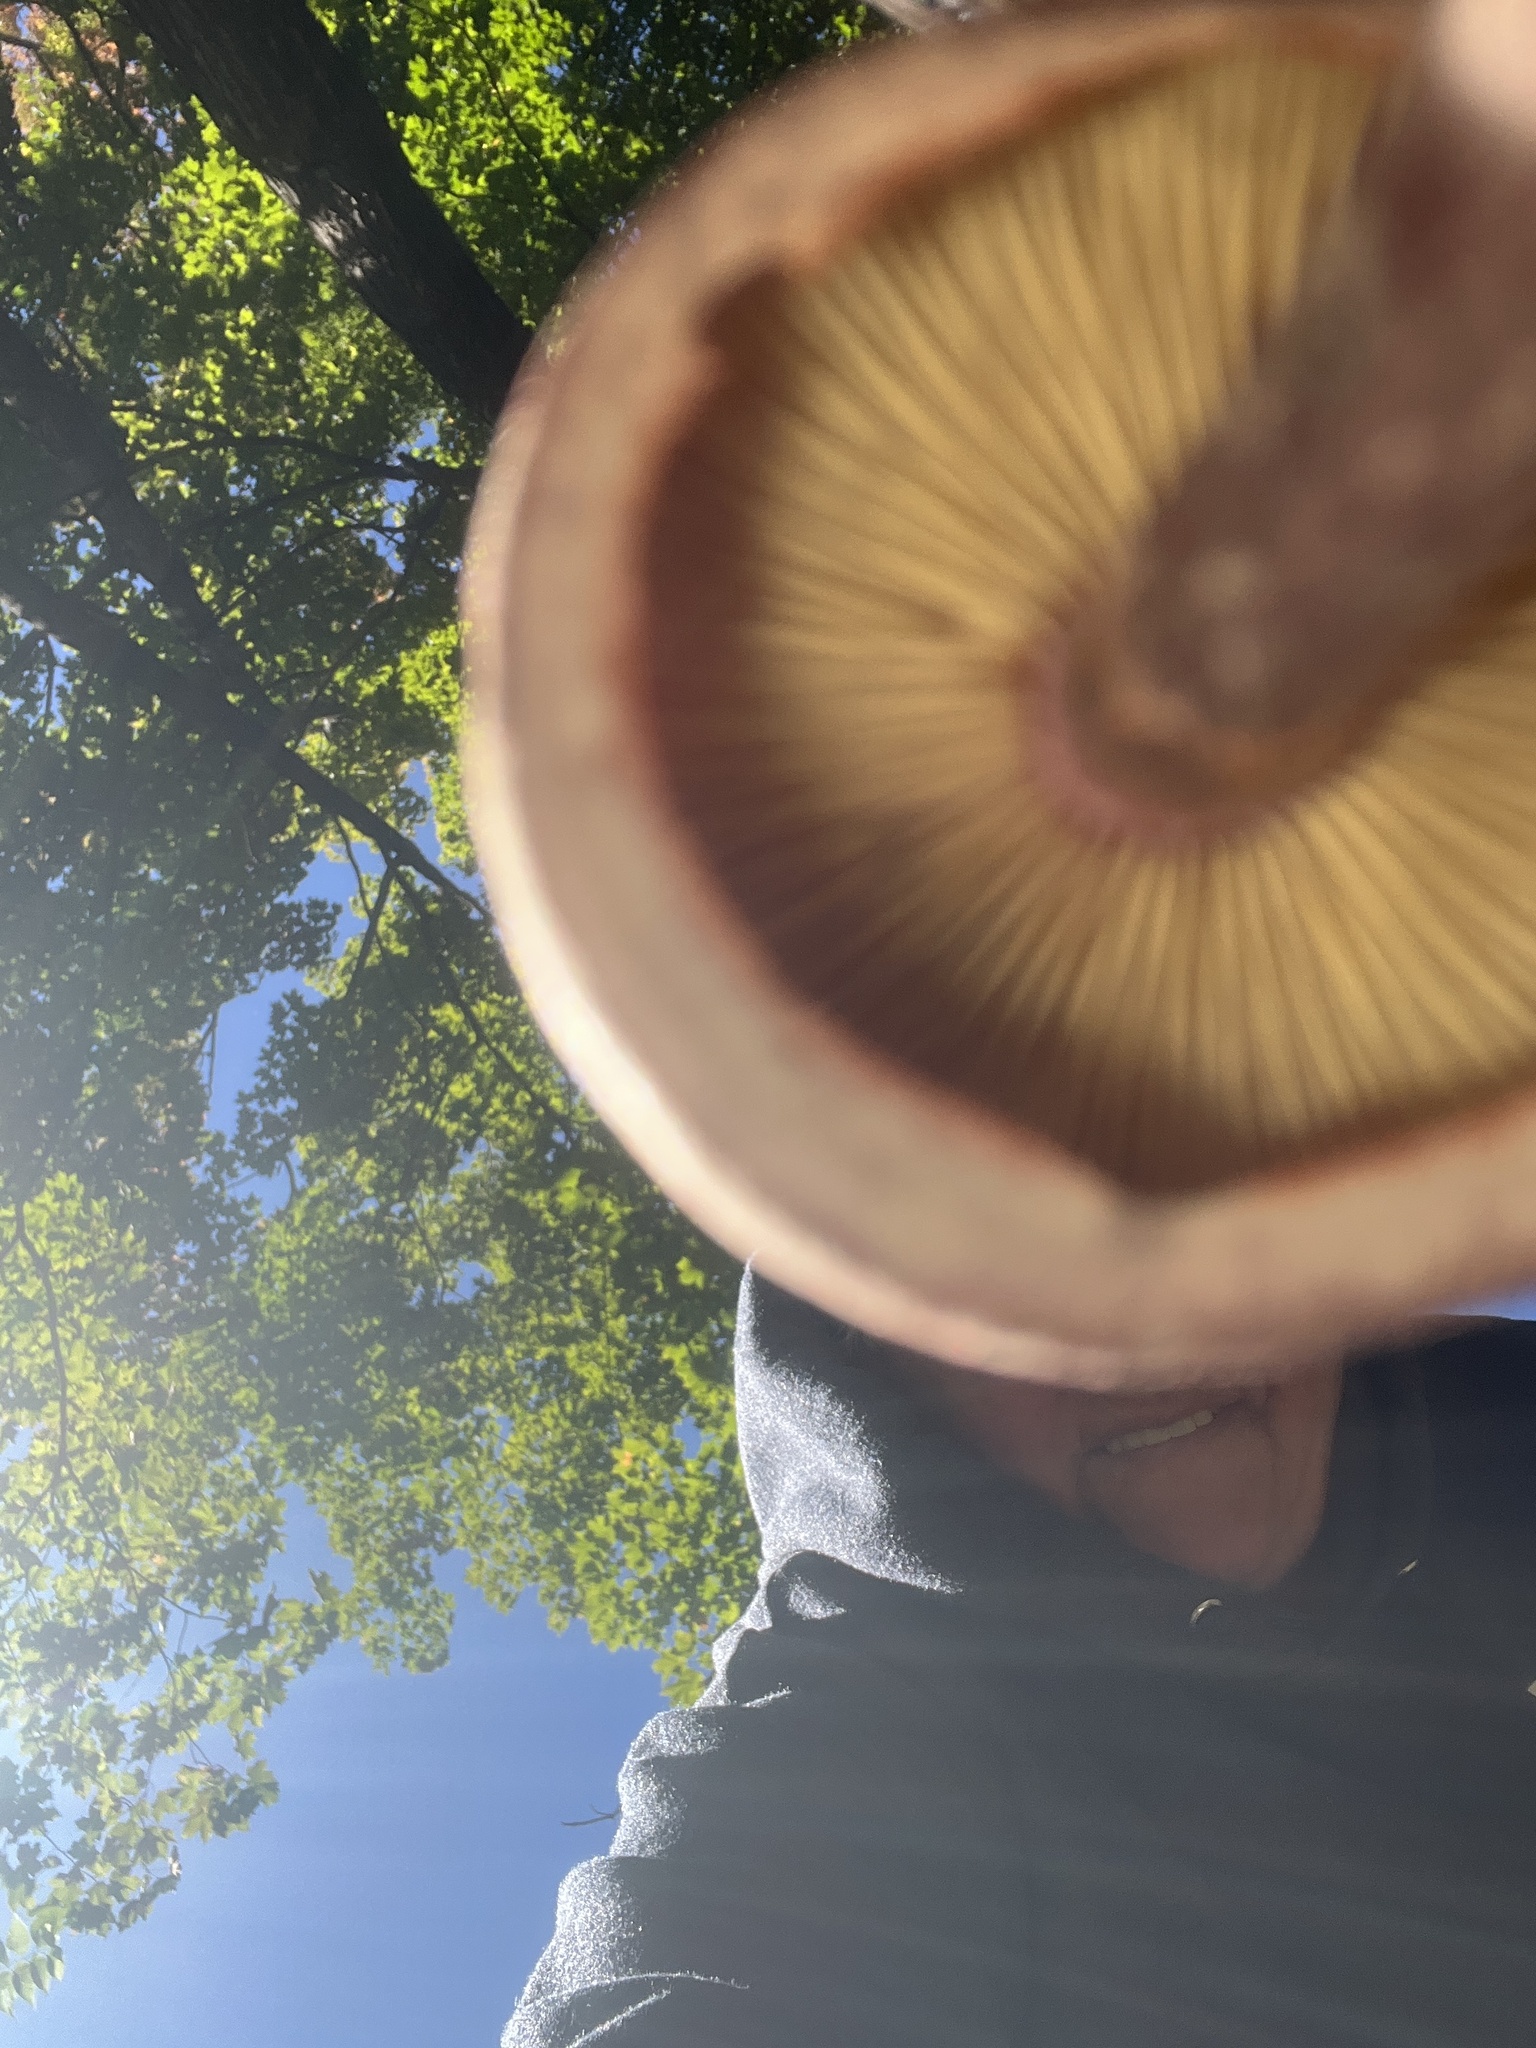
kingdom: Fungi
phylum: Basidiomycota
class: Agaricomycetes
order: Agaricales
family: Hymenogastraceae
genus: Gymnopilus
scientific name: Gymnopilus luteofolius
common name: Yellow-gilled gymnopilus
